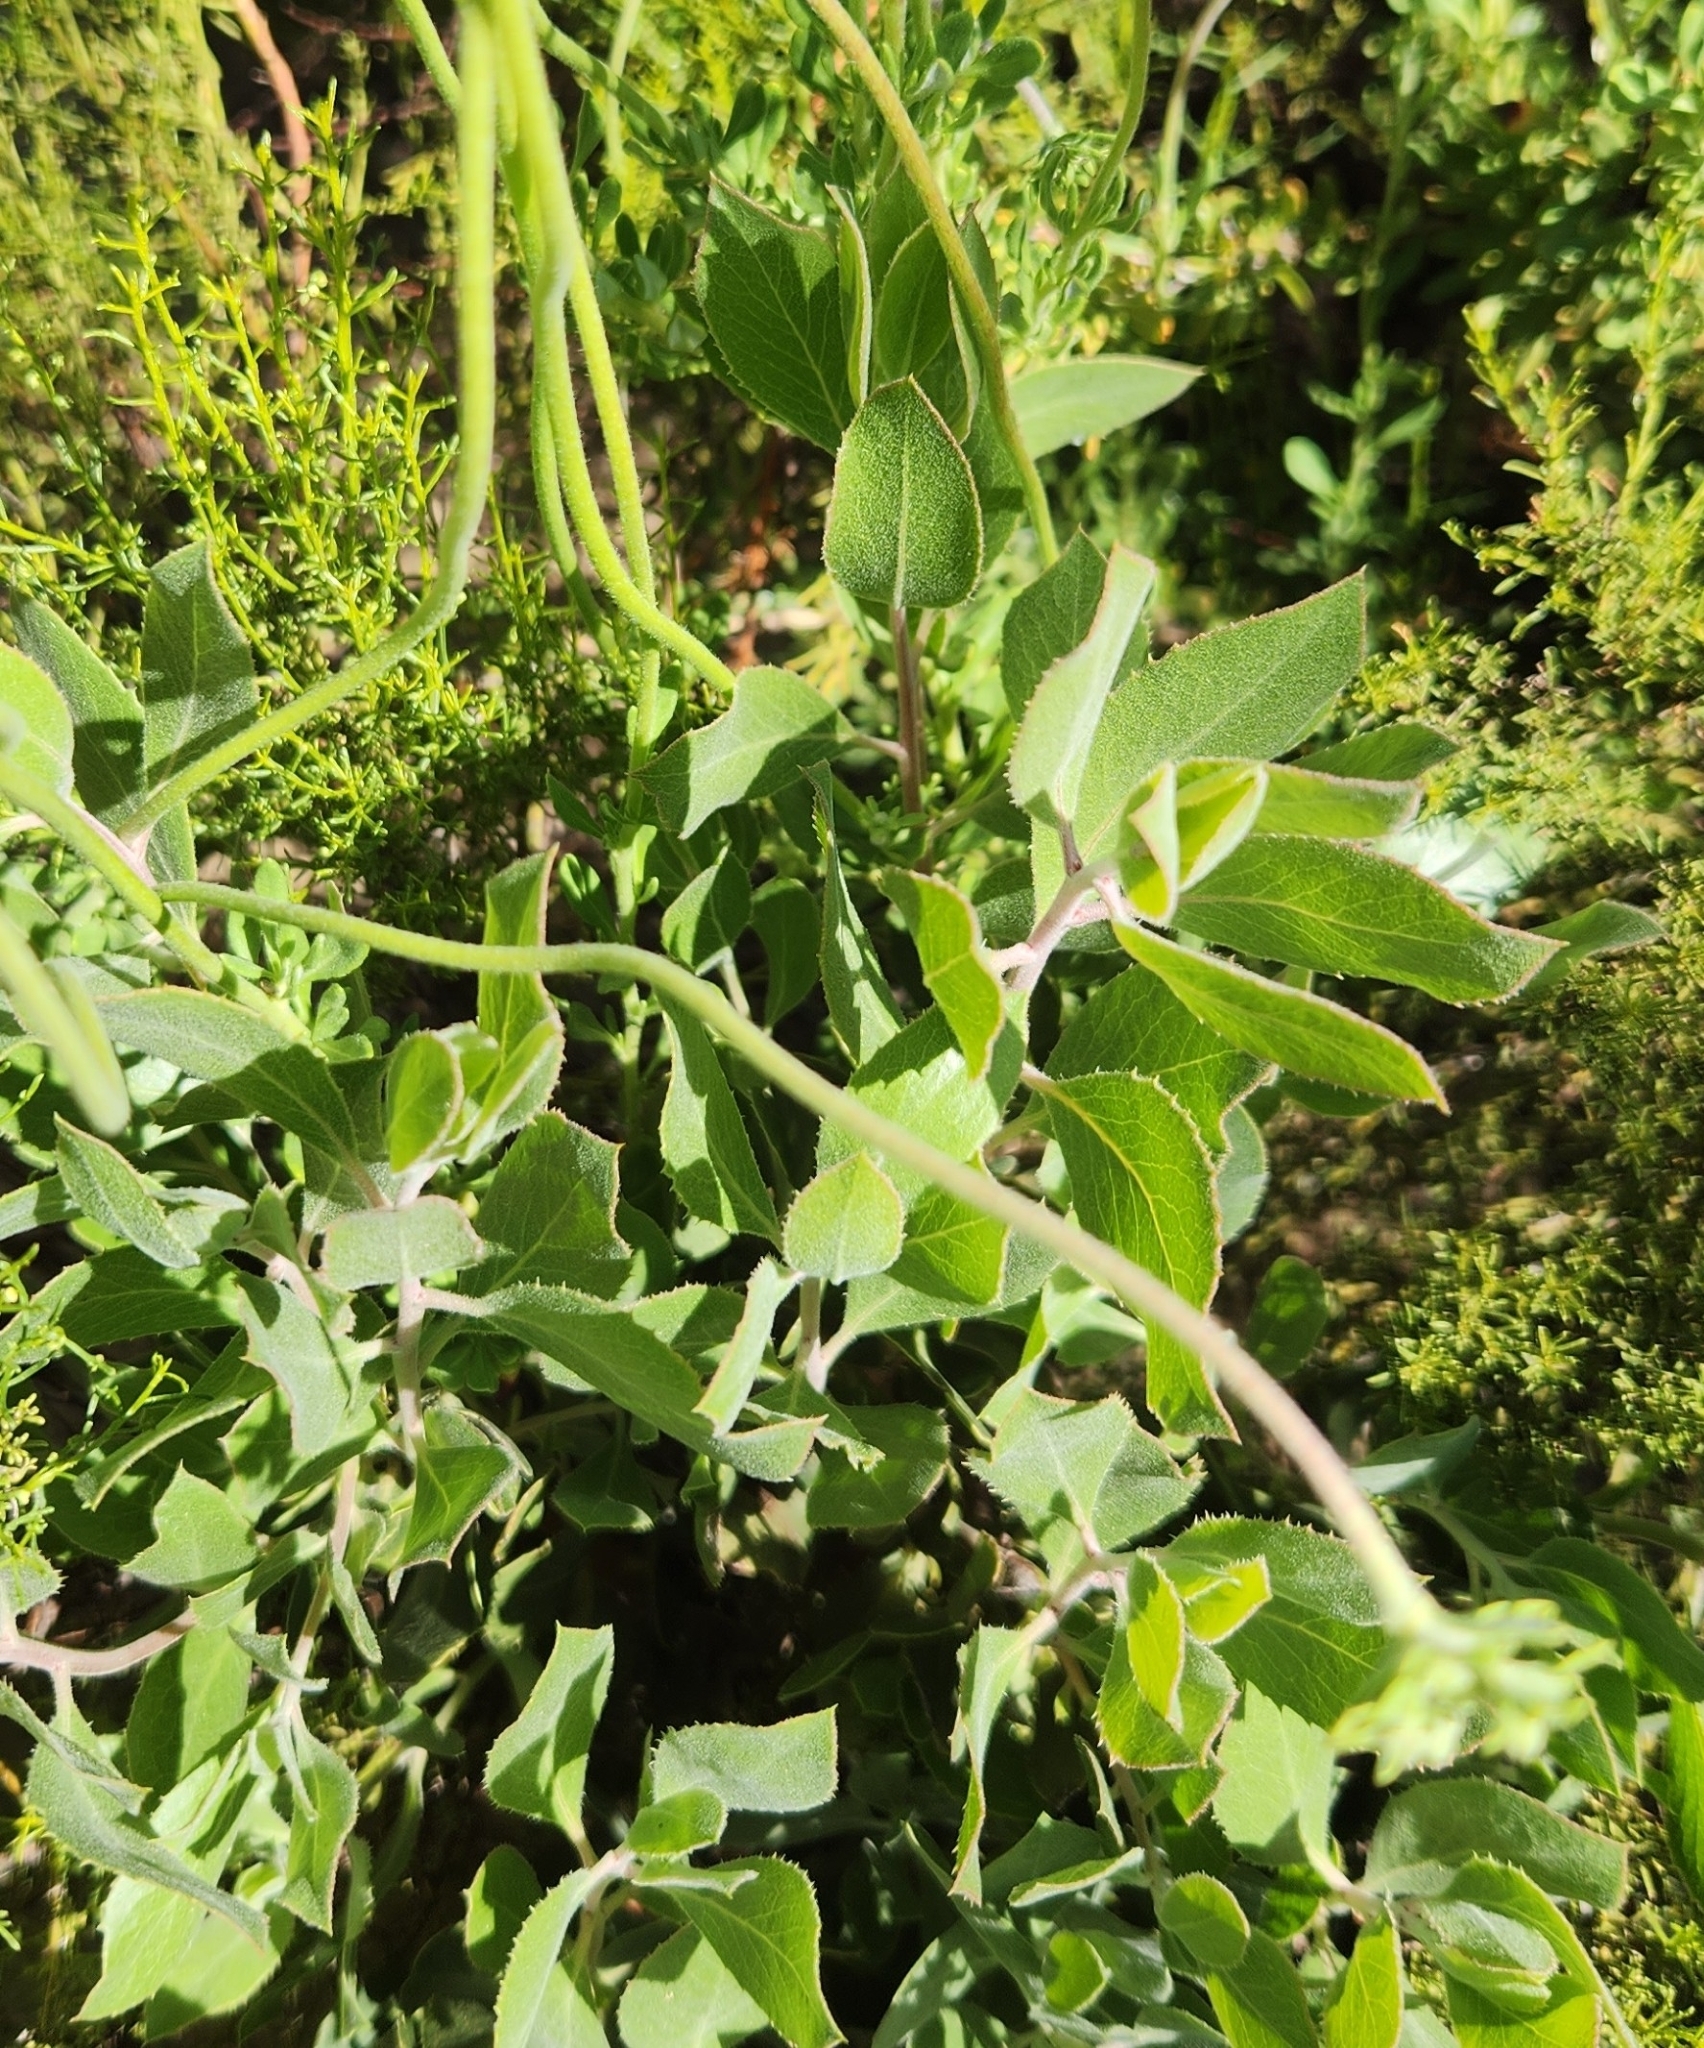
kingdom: Plantae
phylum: Tracheophyta
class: Magnoliopsida
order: Caryophyllales
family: Polygonaceae
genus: Eriogonum
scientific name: Eriogonum fasciculatum
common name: California wild buckwheat
